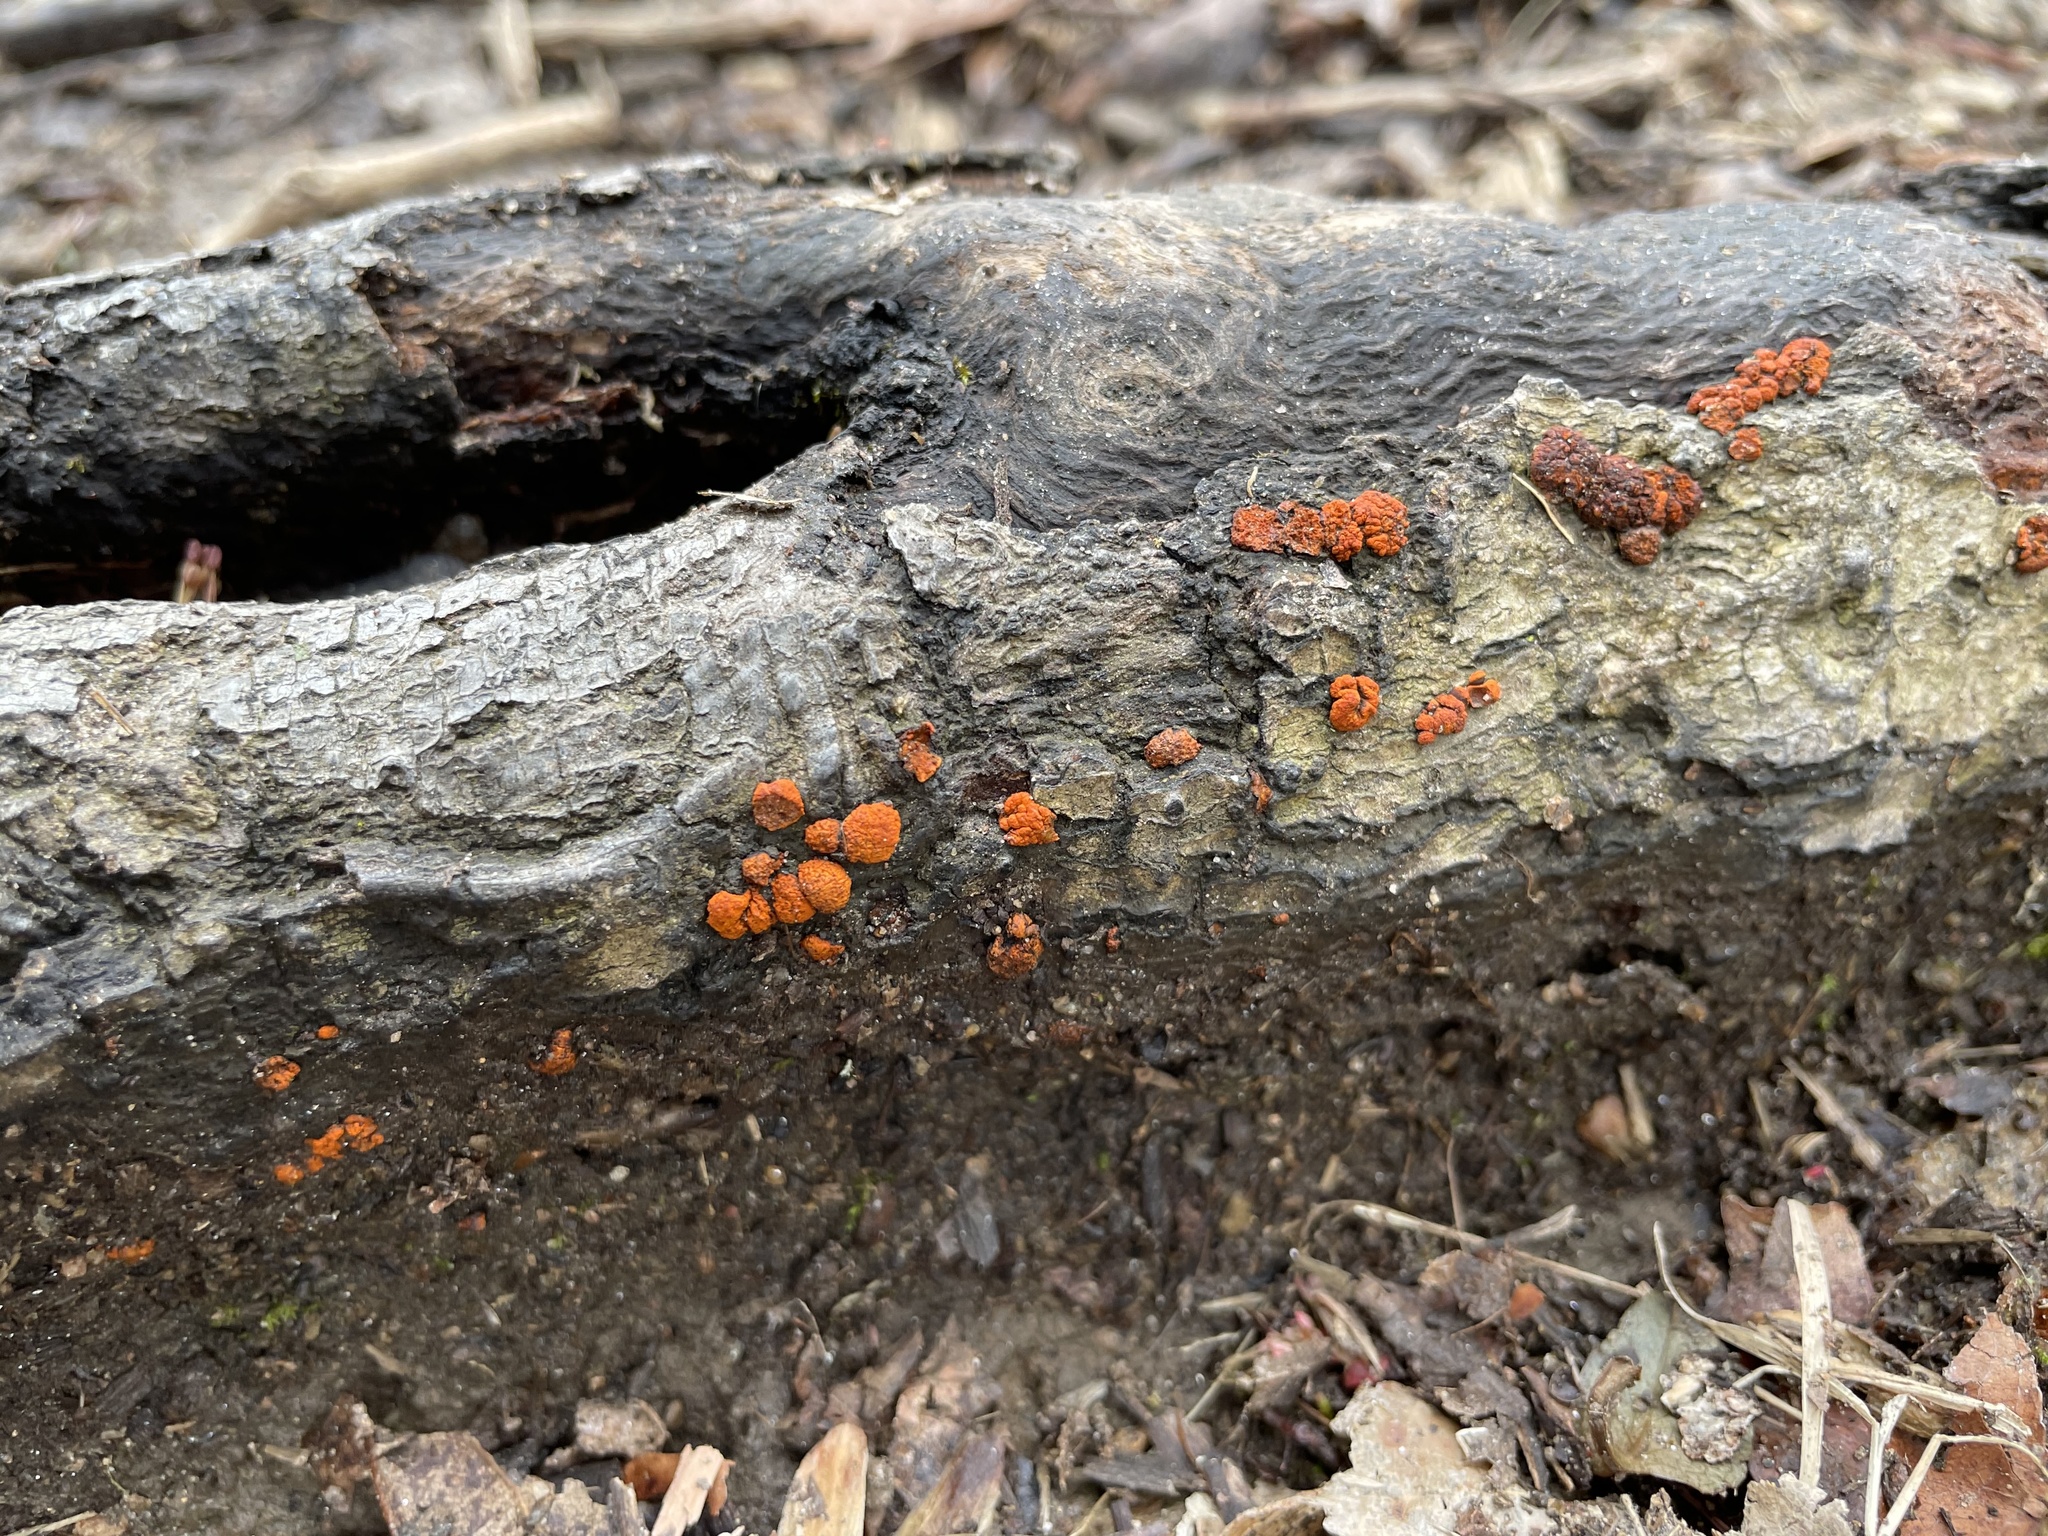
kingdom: Fungi
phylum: Ascomycota
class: Sordariomycetes
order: Diaporthales
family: Cryphonectriaceae
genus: Amphilogia
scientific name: Amphilogia gyrosa
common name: Orange hobnail canker
